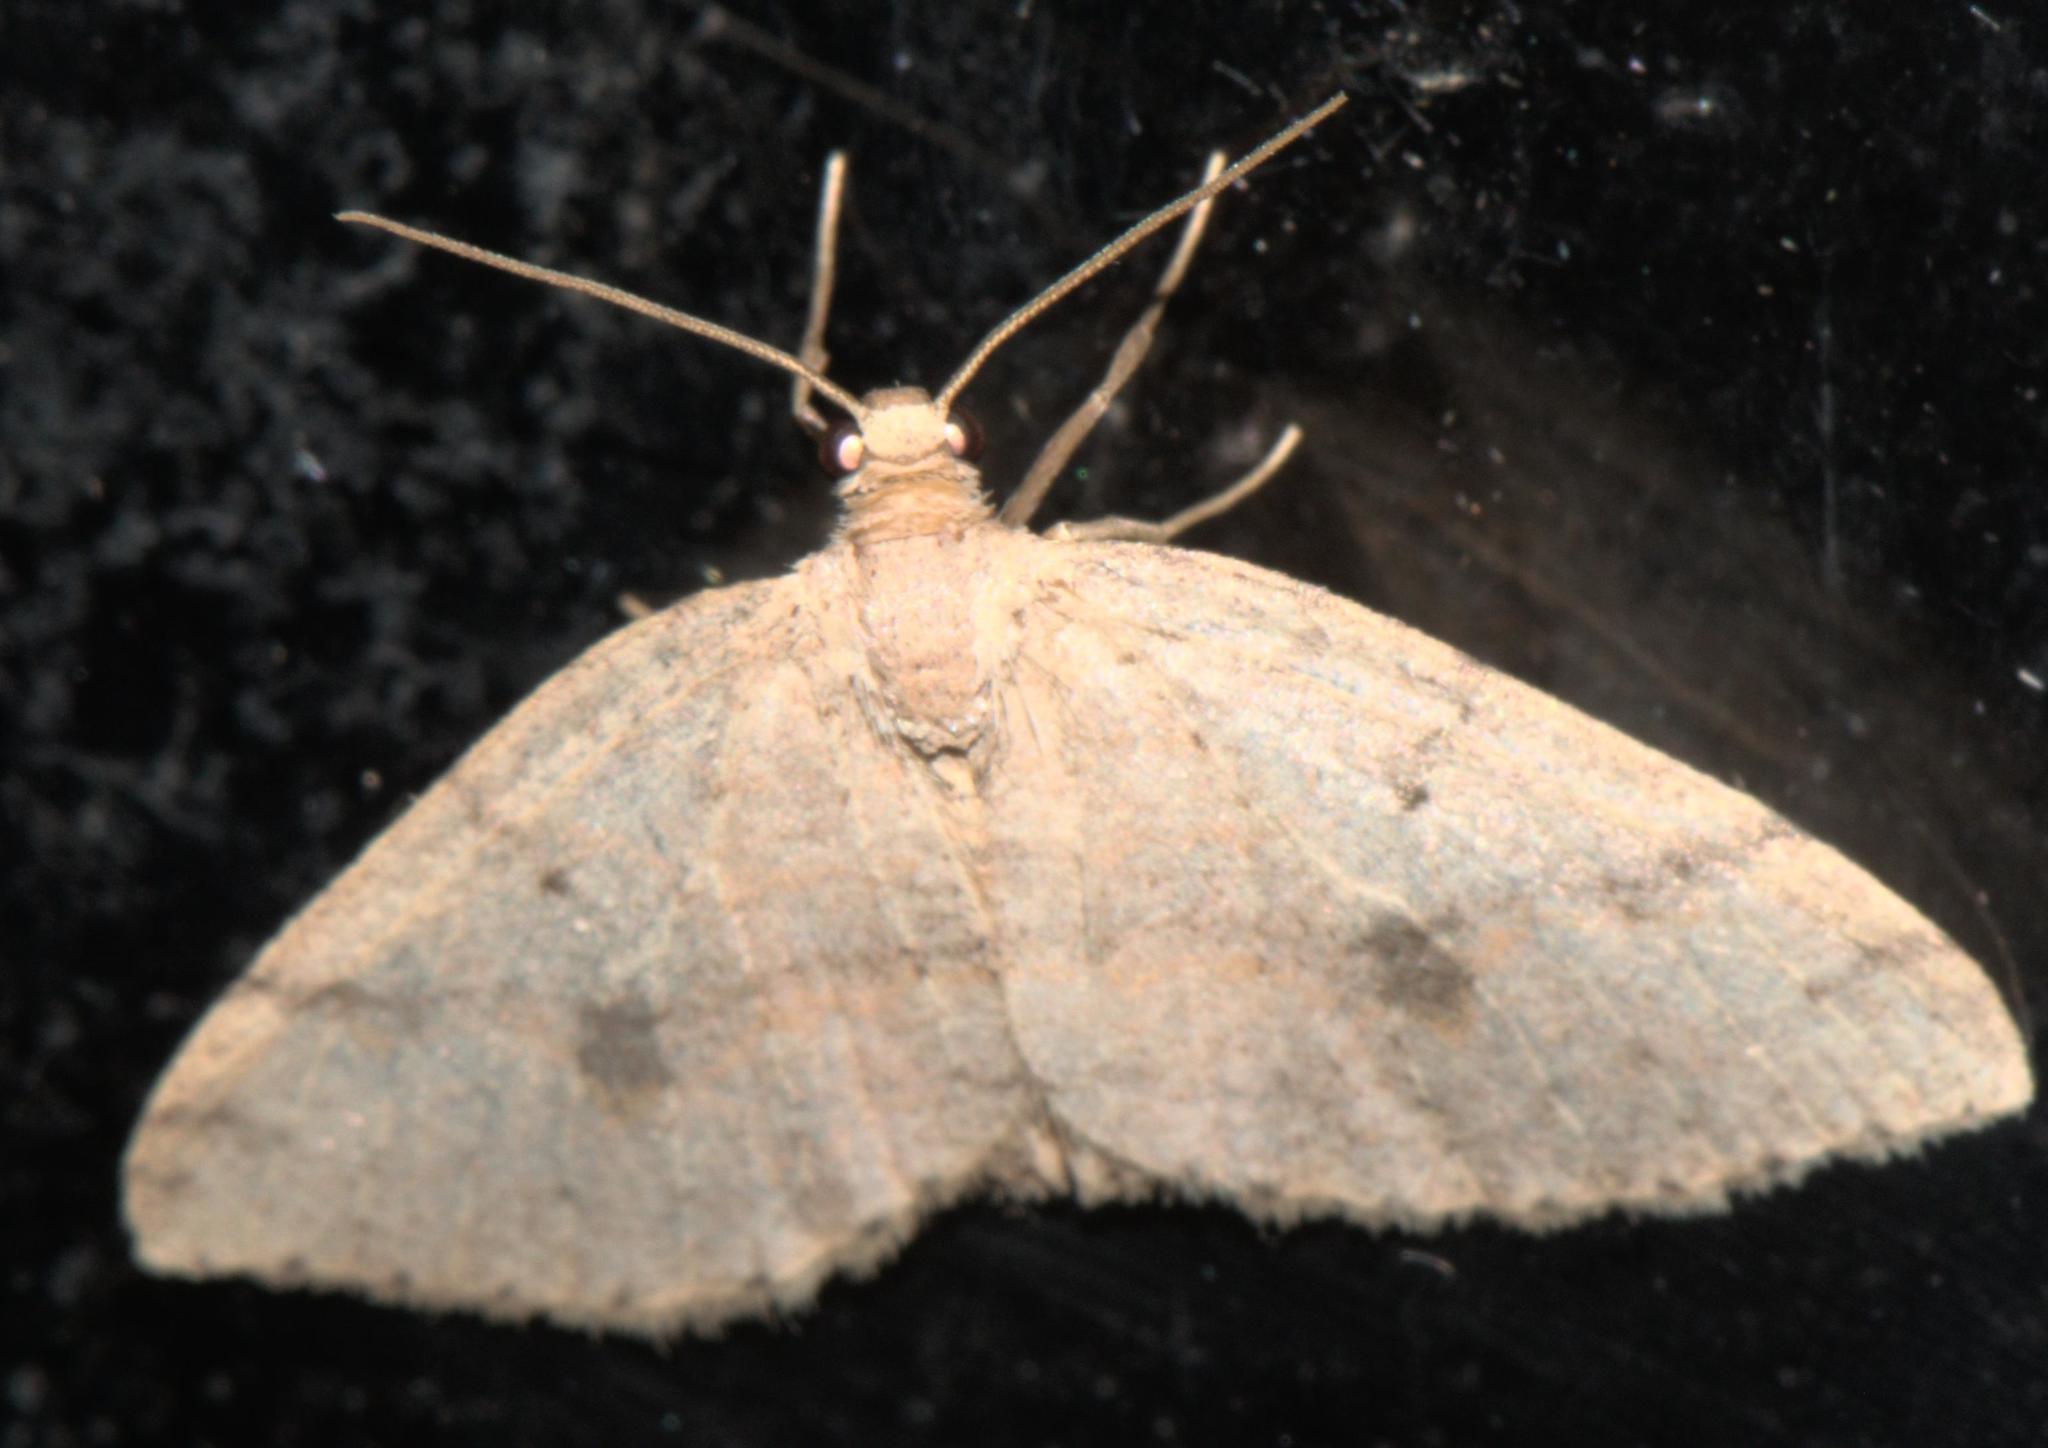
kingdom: Animalia
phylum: Arthropoda
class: Insecta
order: Lepidoptera
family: Geometridae
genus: Hydrelia
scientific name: Hydrelia rubricosta
